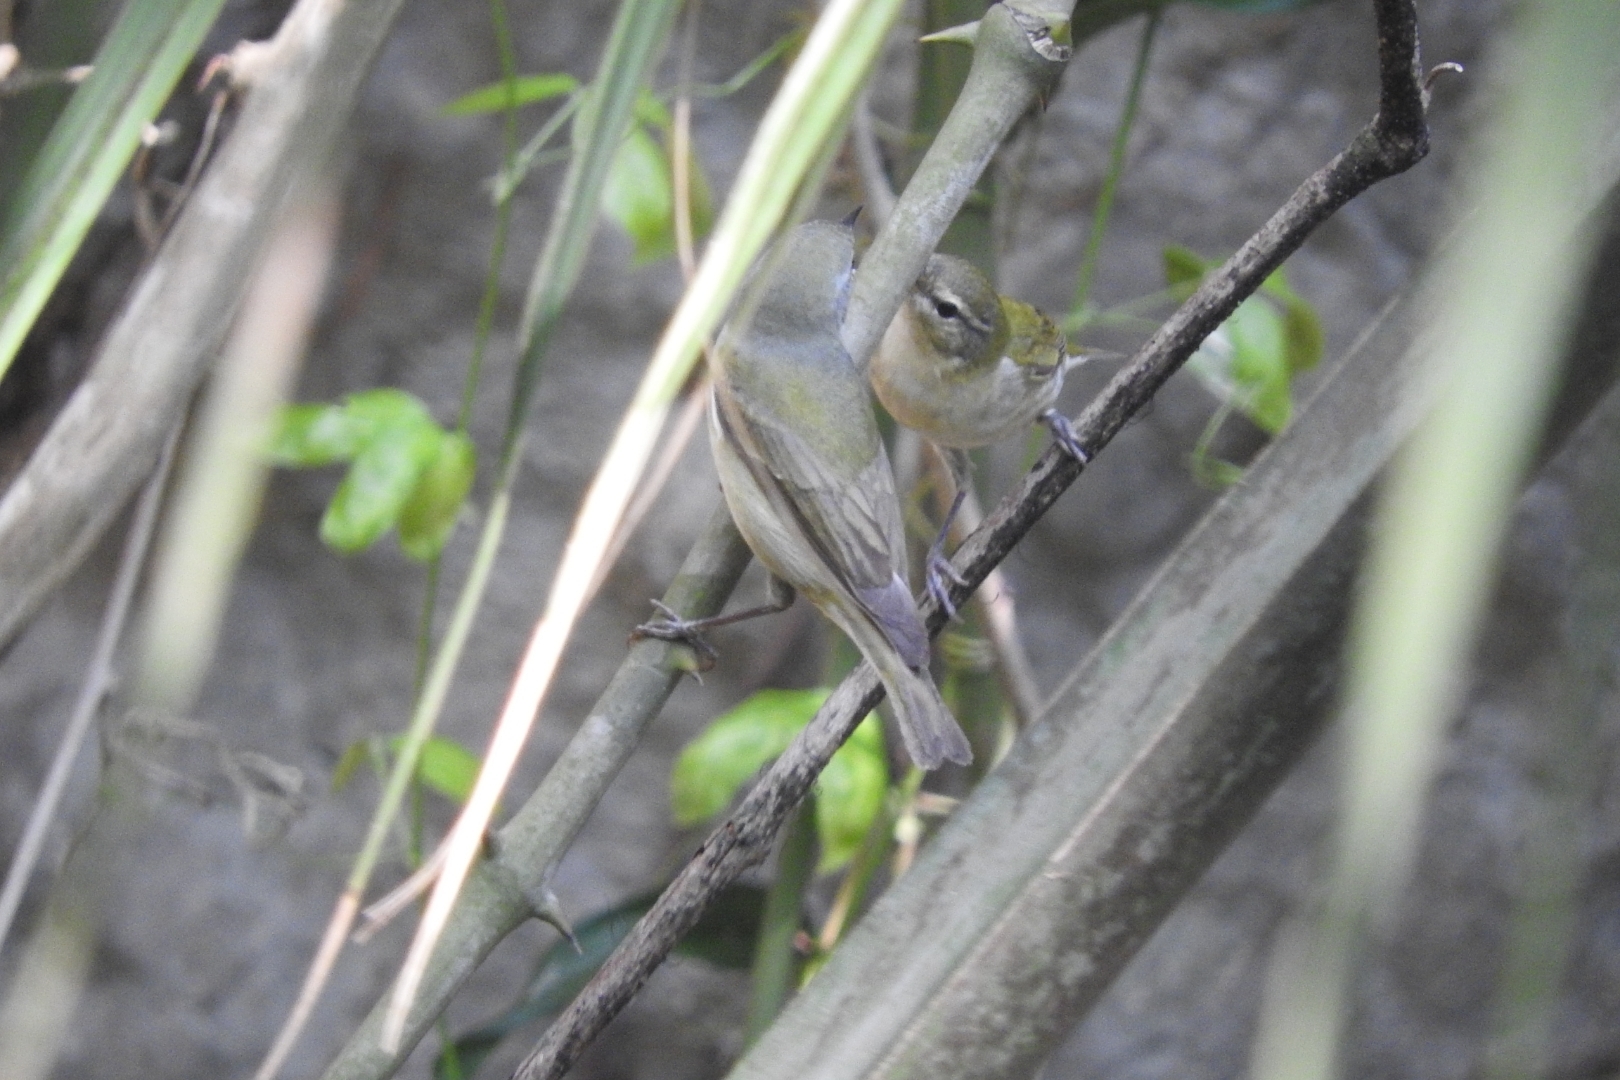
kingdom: Animalia
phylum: Chordata
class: Aves
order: Passeriformes
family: Parulidae
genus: Leiothlypis
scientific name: Leiothlypis peregrina
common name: Tennessee warbler
